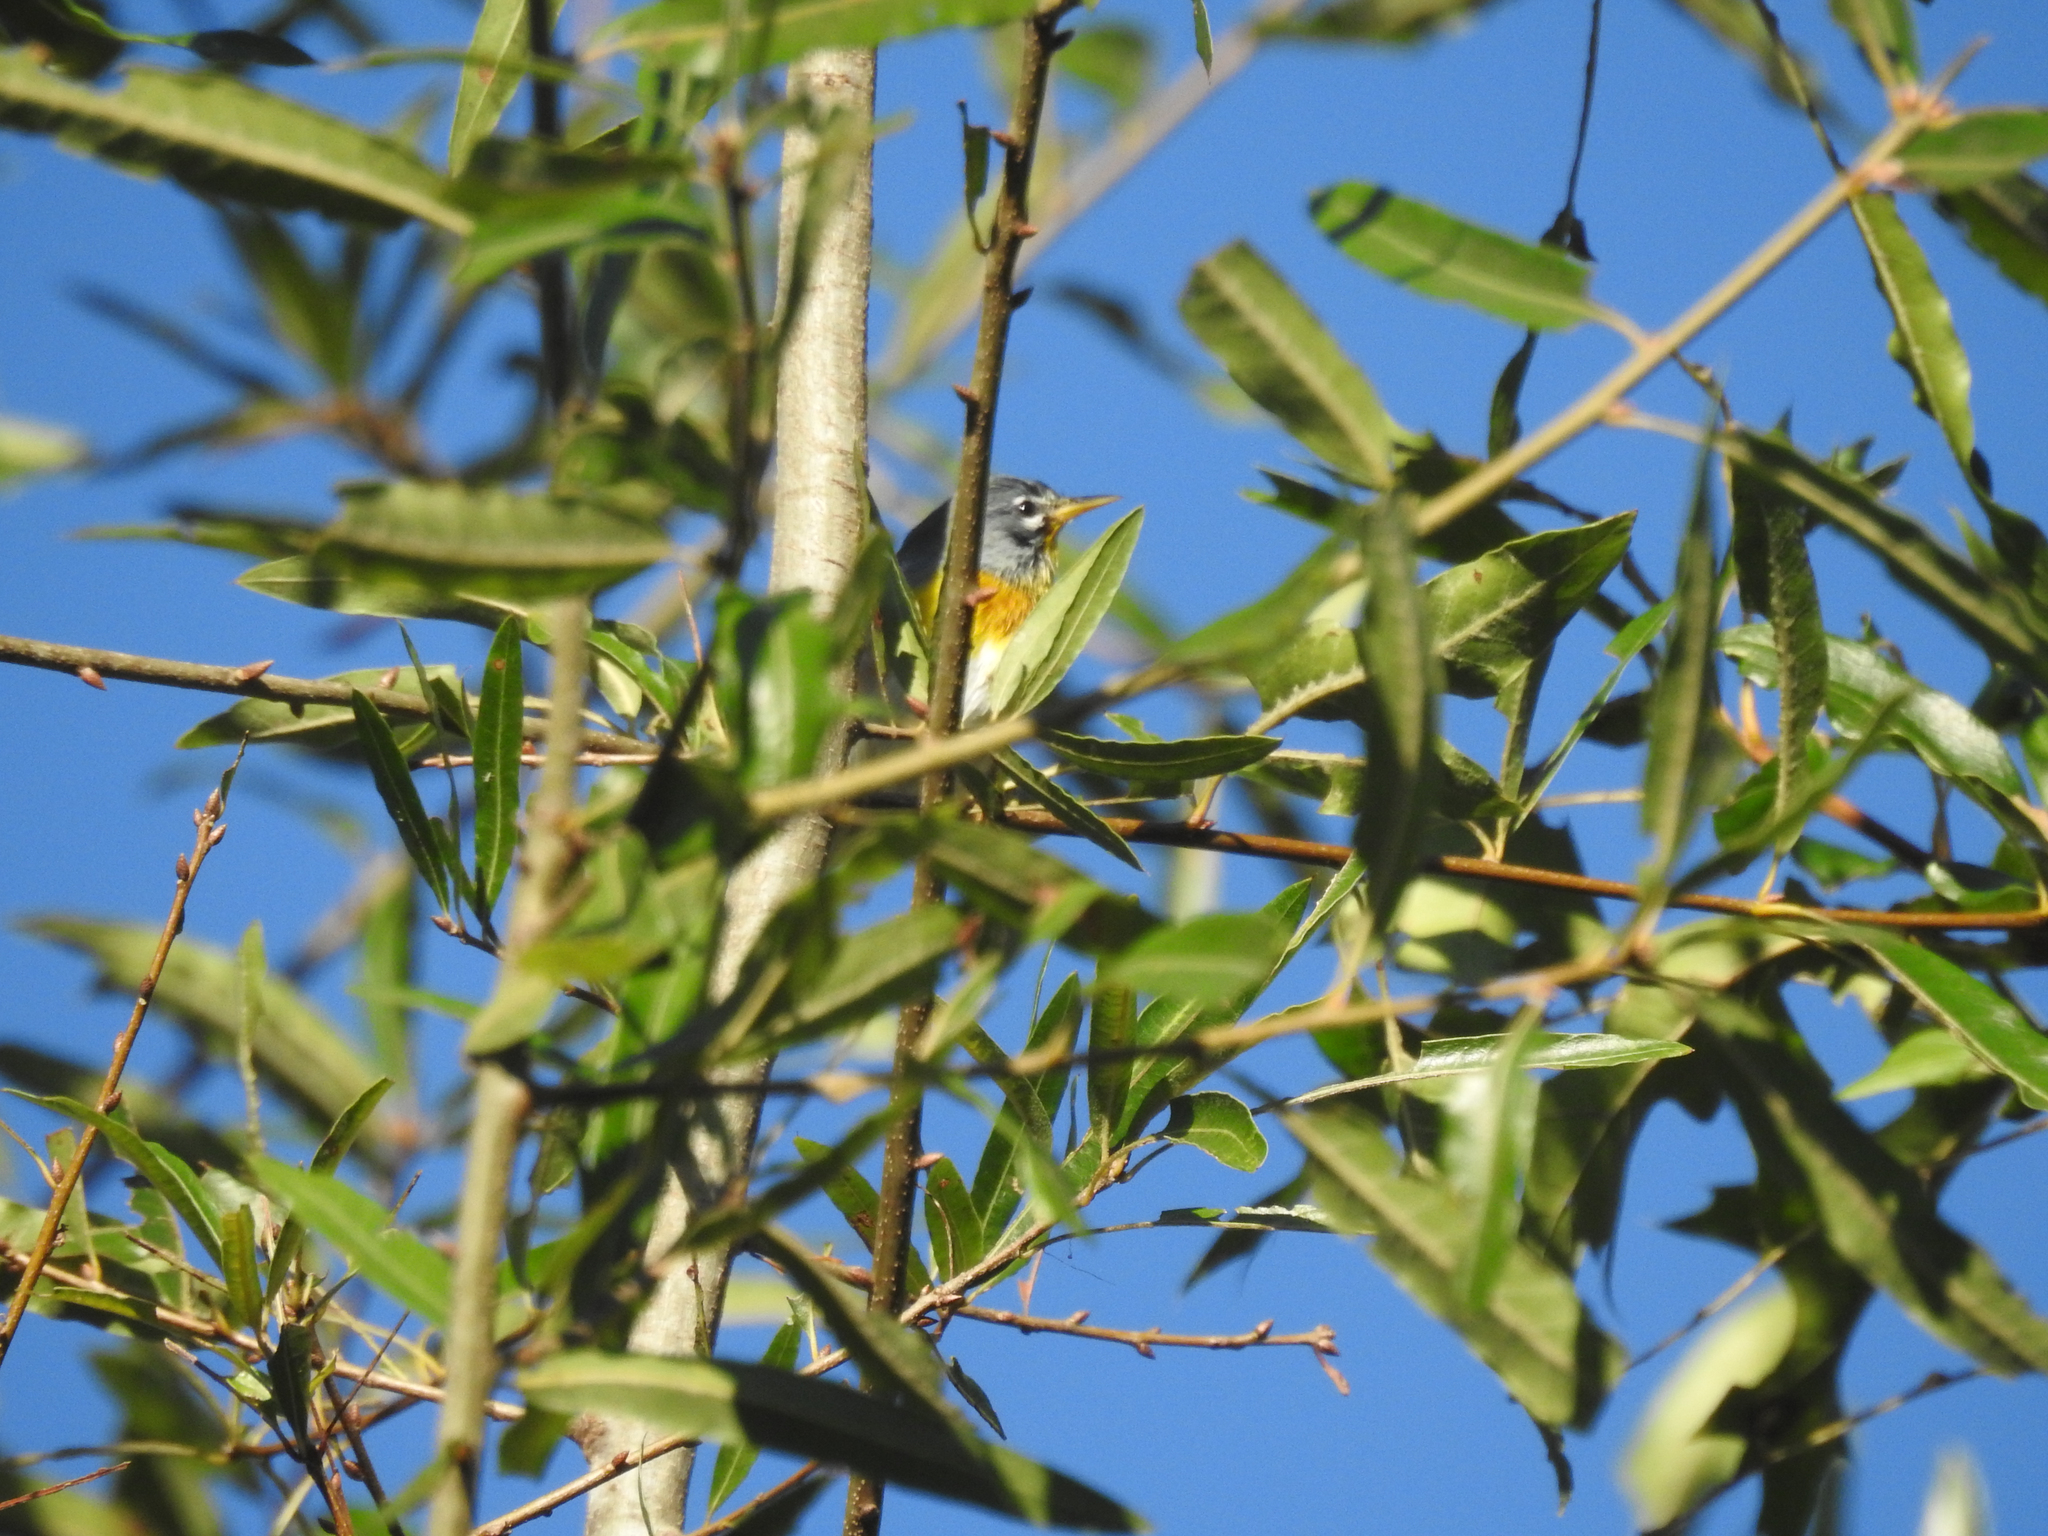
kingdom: Animalia
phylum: Chordata
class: Aves
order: Passeriformes
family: Parulidae
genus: Setophaga
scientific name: Setophaga americana
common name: Northern parula
